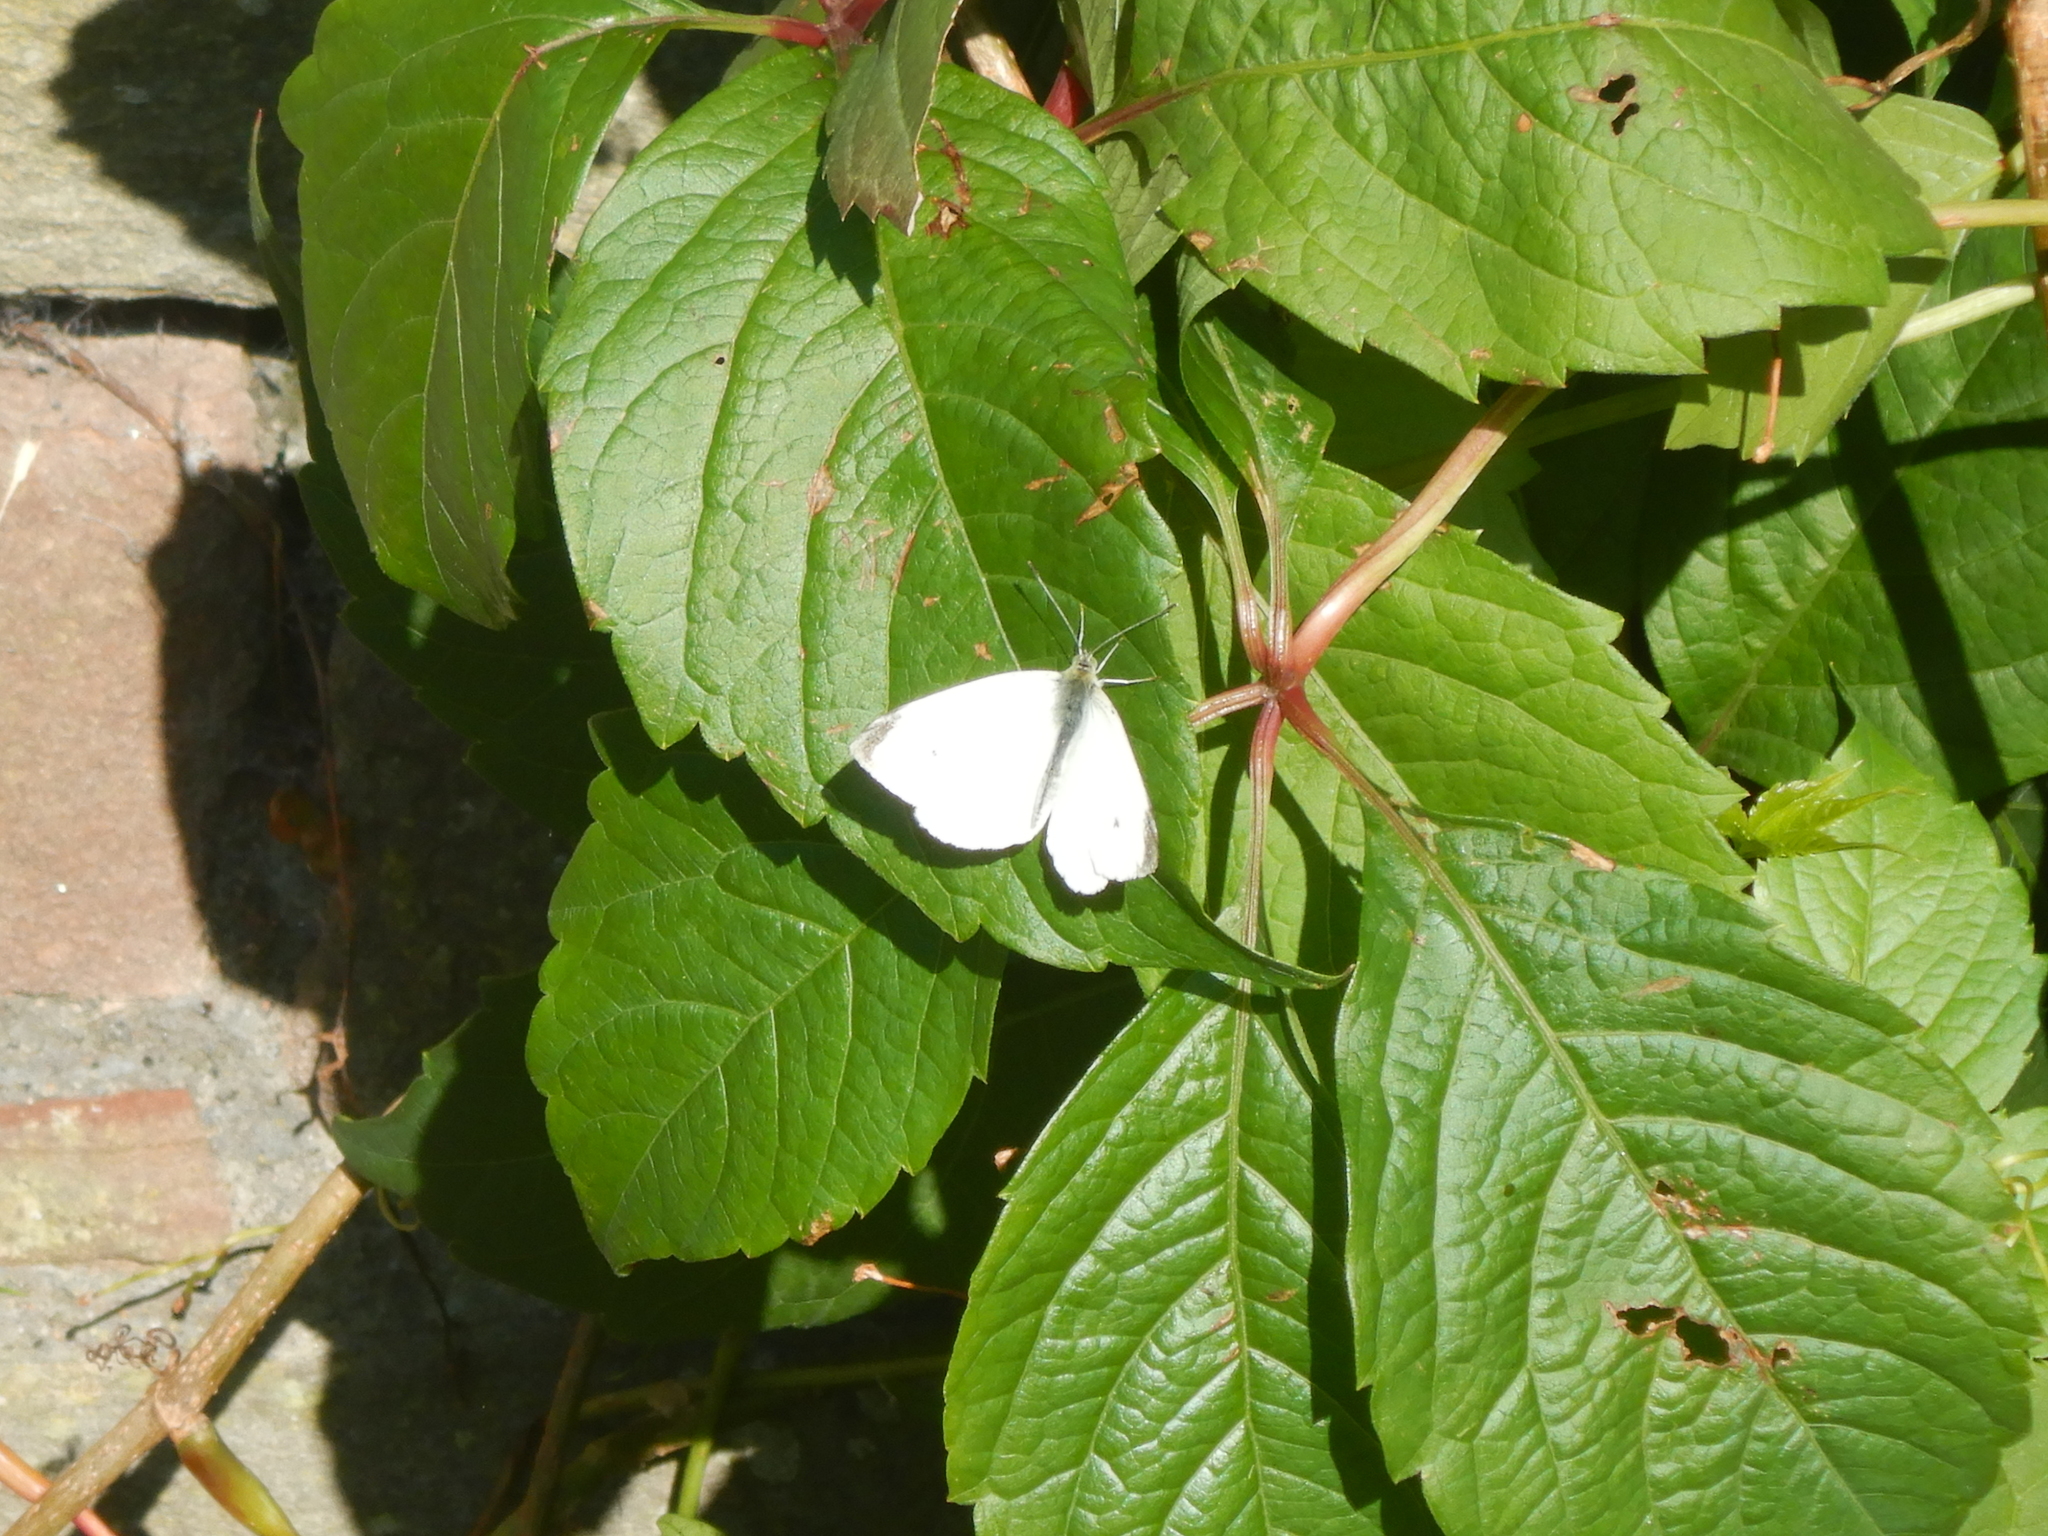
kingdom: Animalia
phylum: Arthropoda
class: Insecta
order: Lepidoptera
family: Pieridae
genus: Pieris
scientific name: Pieris rapae
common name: Small white
